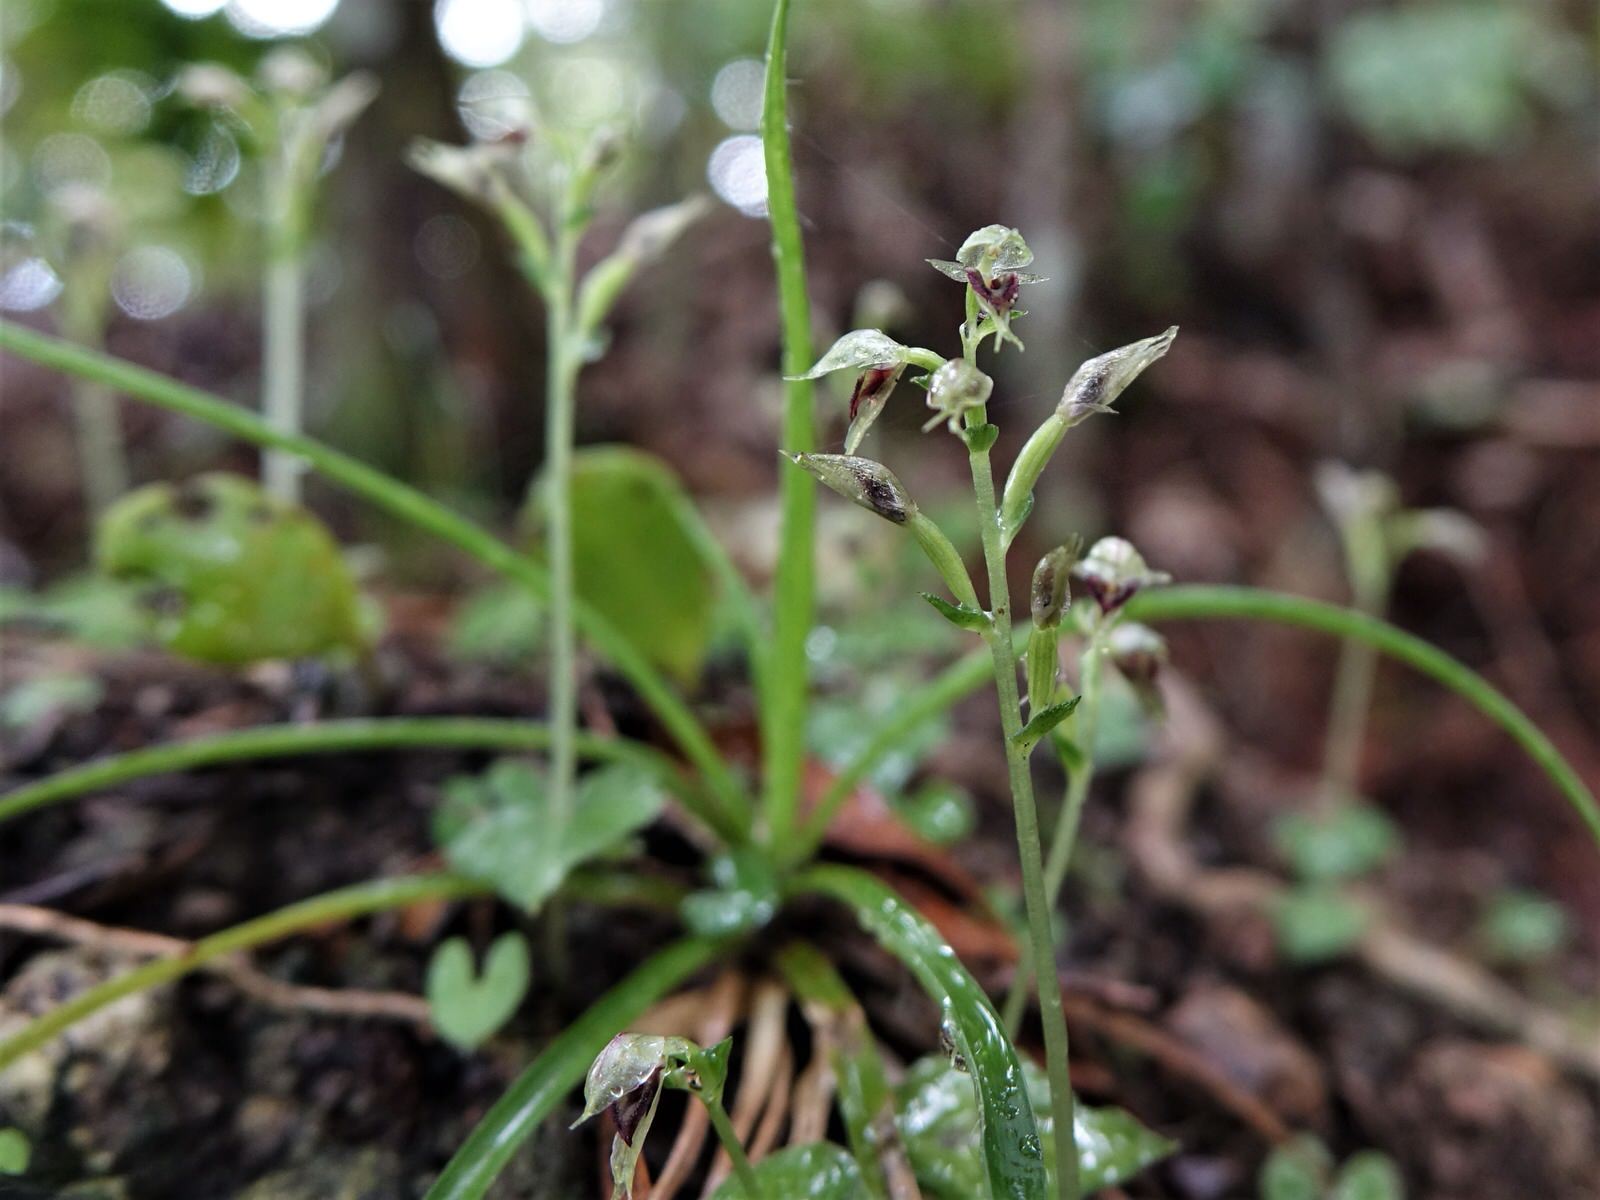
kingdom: Plantae
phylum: Tracheophyta
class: Liliopsida
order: Asparagales
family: Orchidaceae
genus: Acianthus
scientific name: Acianthus sinclairii
